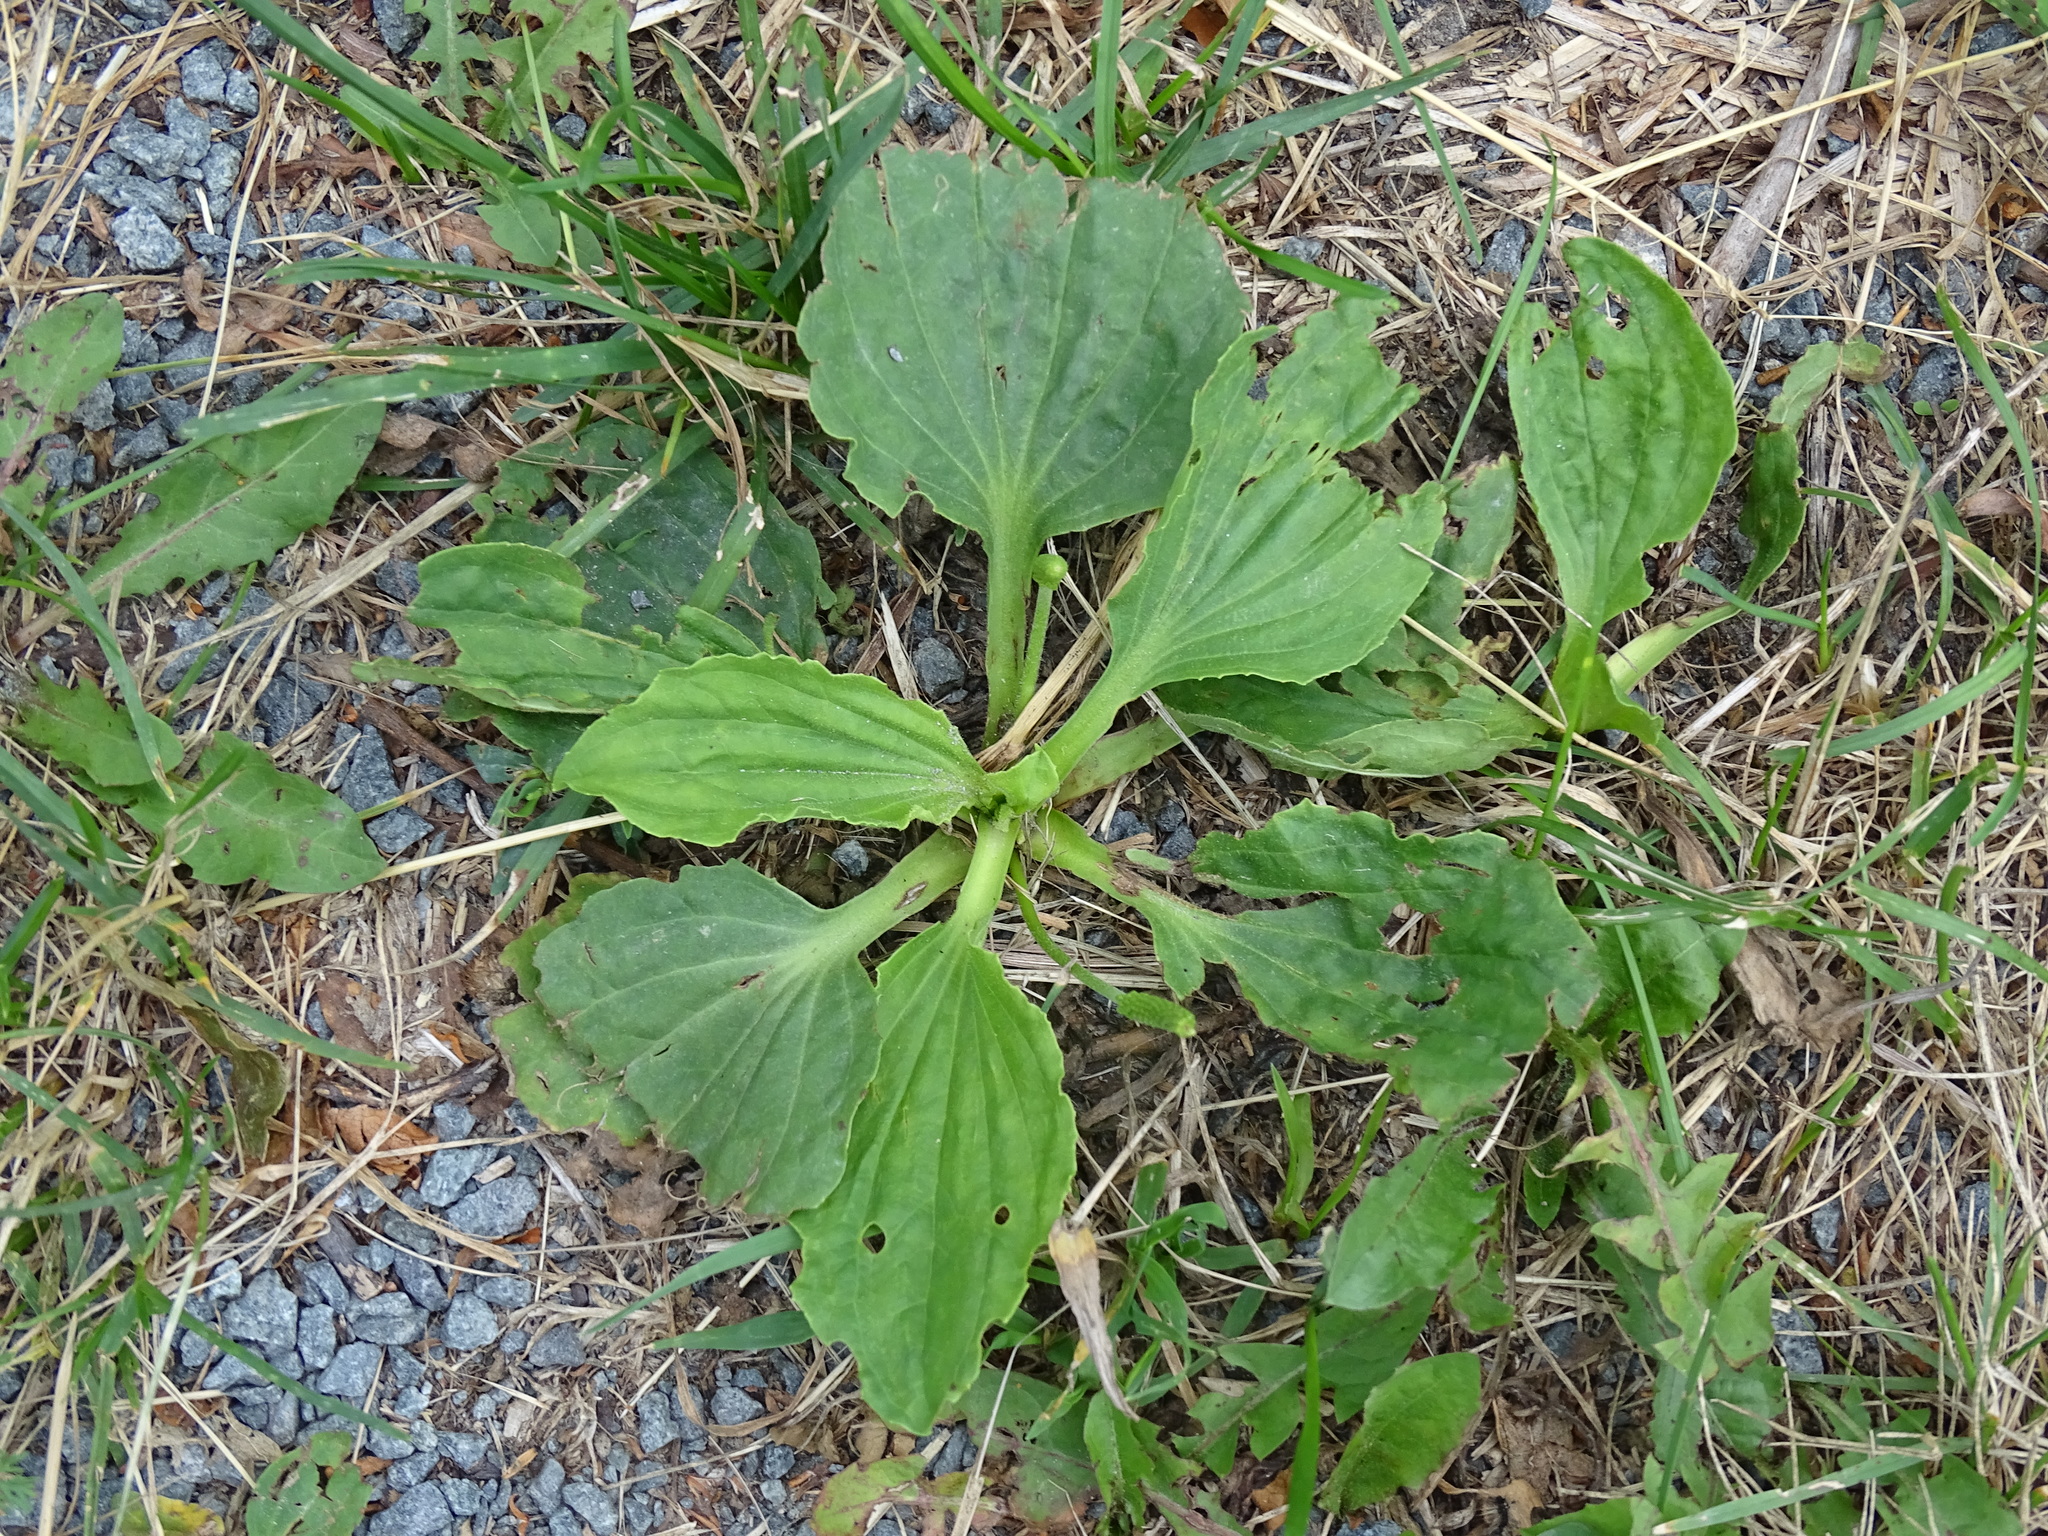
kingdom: Plantae
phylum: Tracheophyta
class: Magnoliopsida
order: Lamiales
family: Plantaginaceae
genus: Plantago
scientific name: Plantago major
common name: Common plantain
